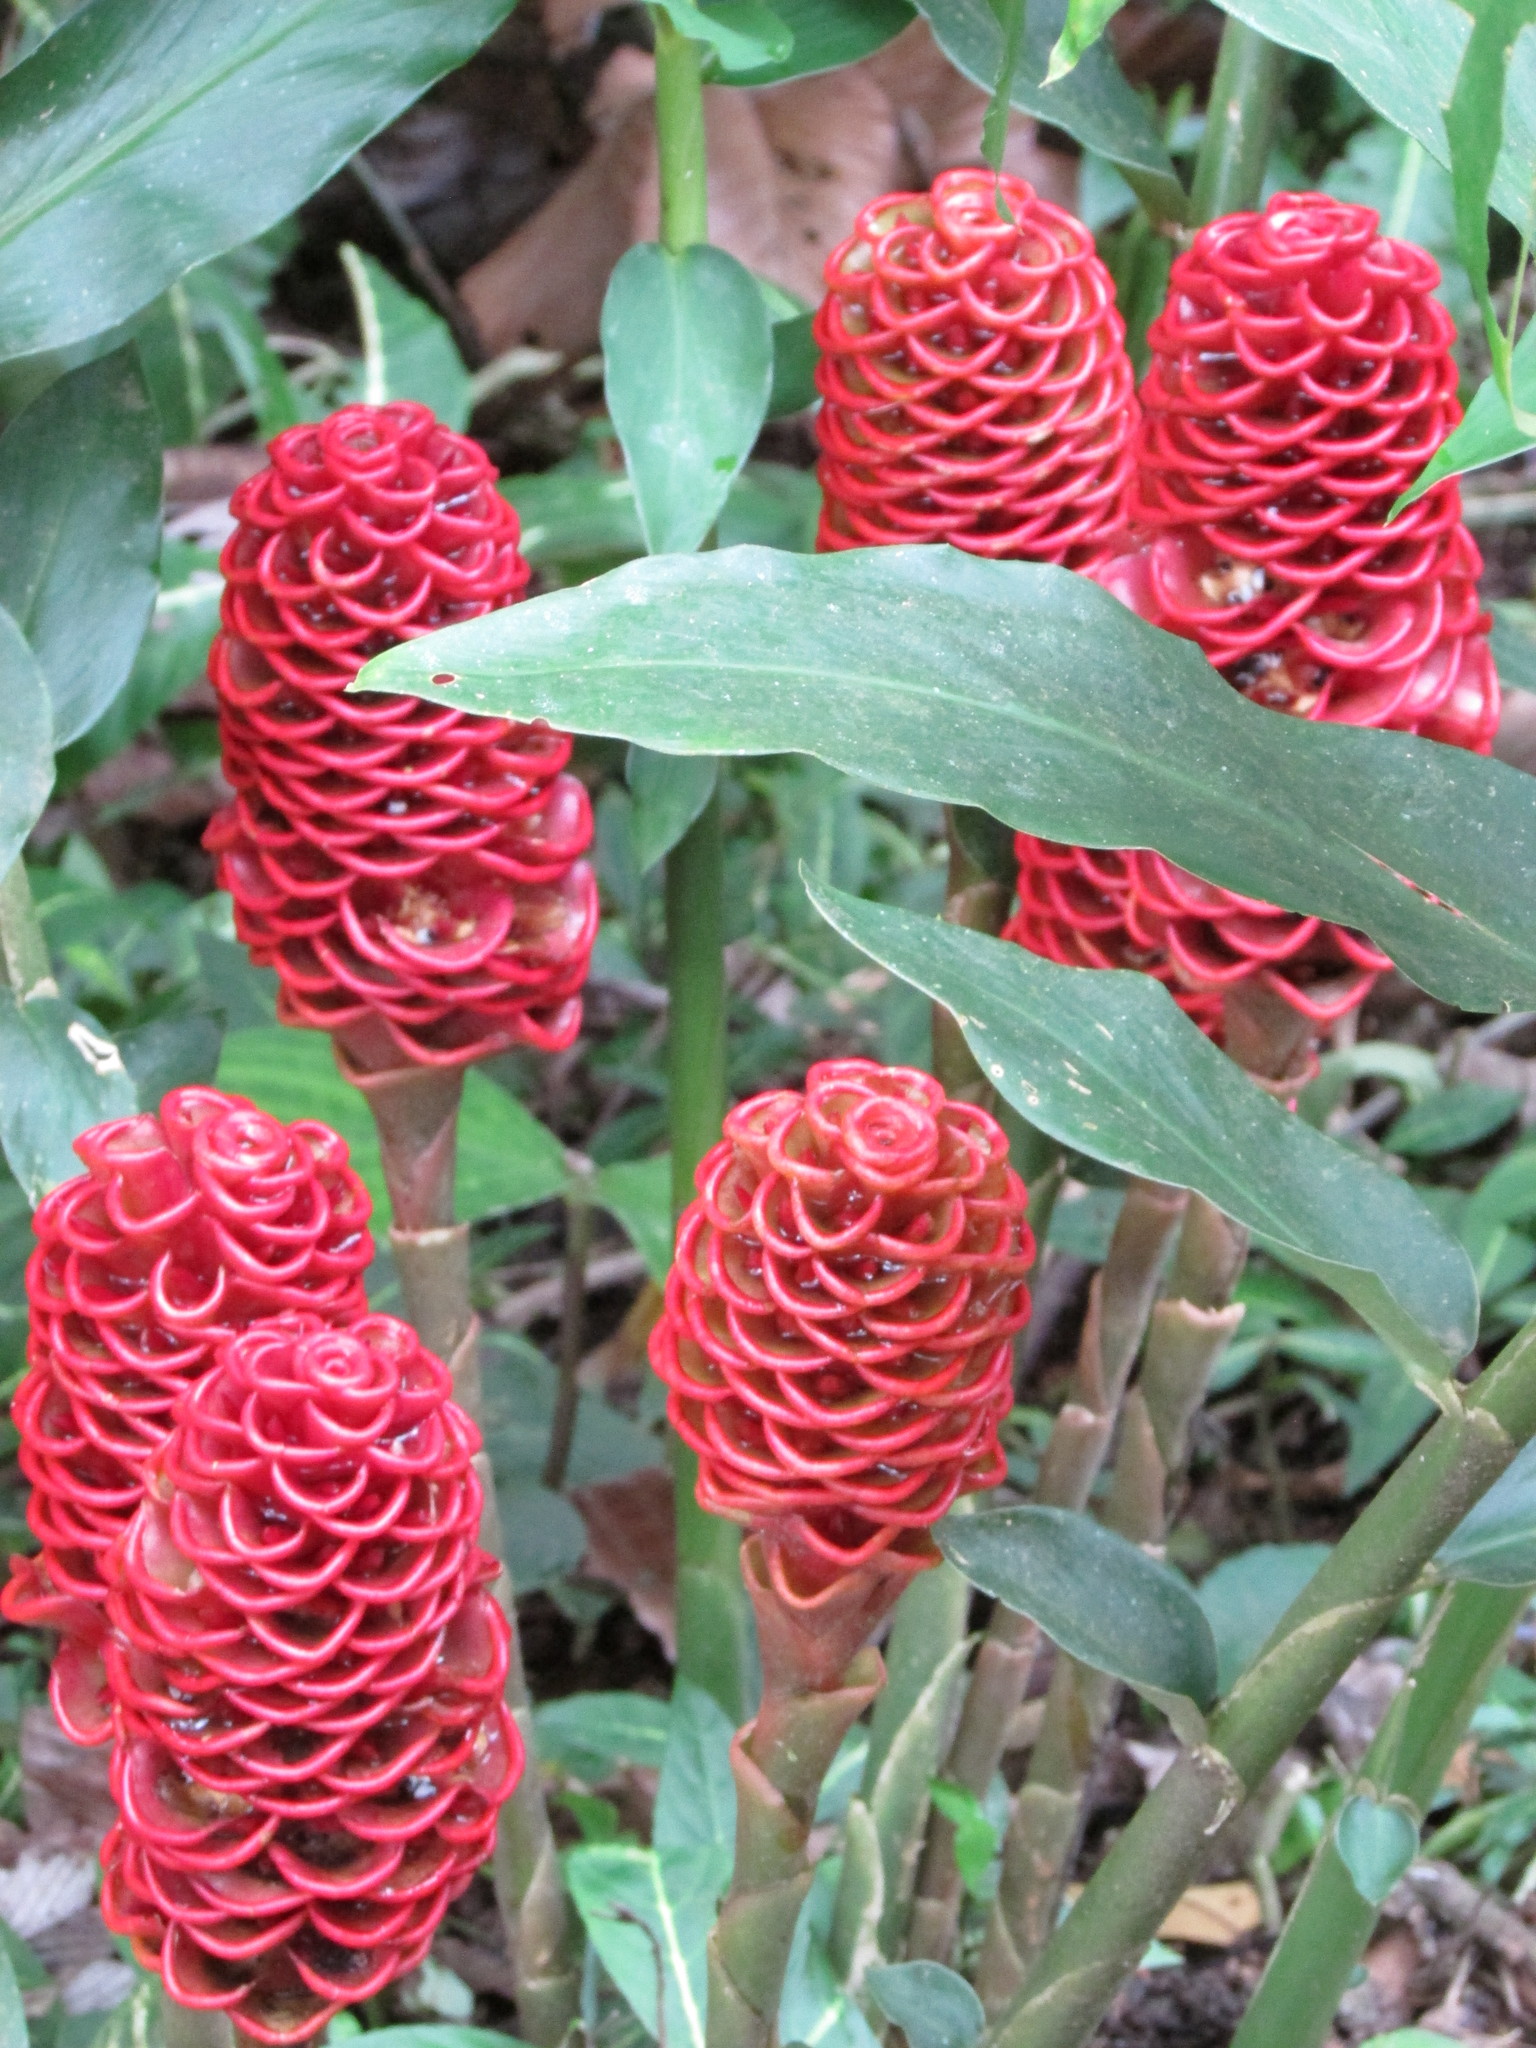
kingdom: Plantae
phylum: Tracheophyta
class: Liliopsida
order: Zingiberales
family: Zingiberaceae
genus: Zingiber
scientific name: Zingiber spectabile
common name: Beehive ginger
